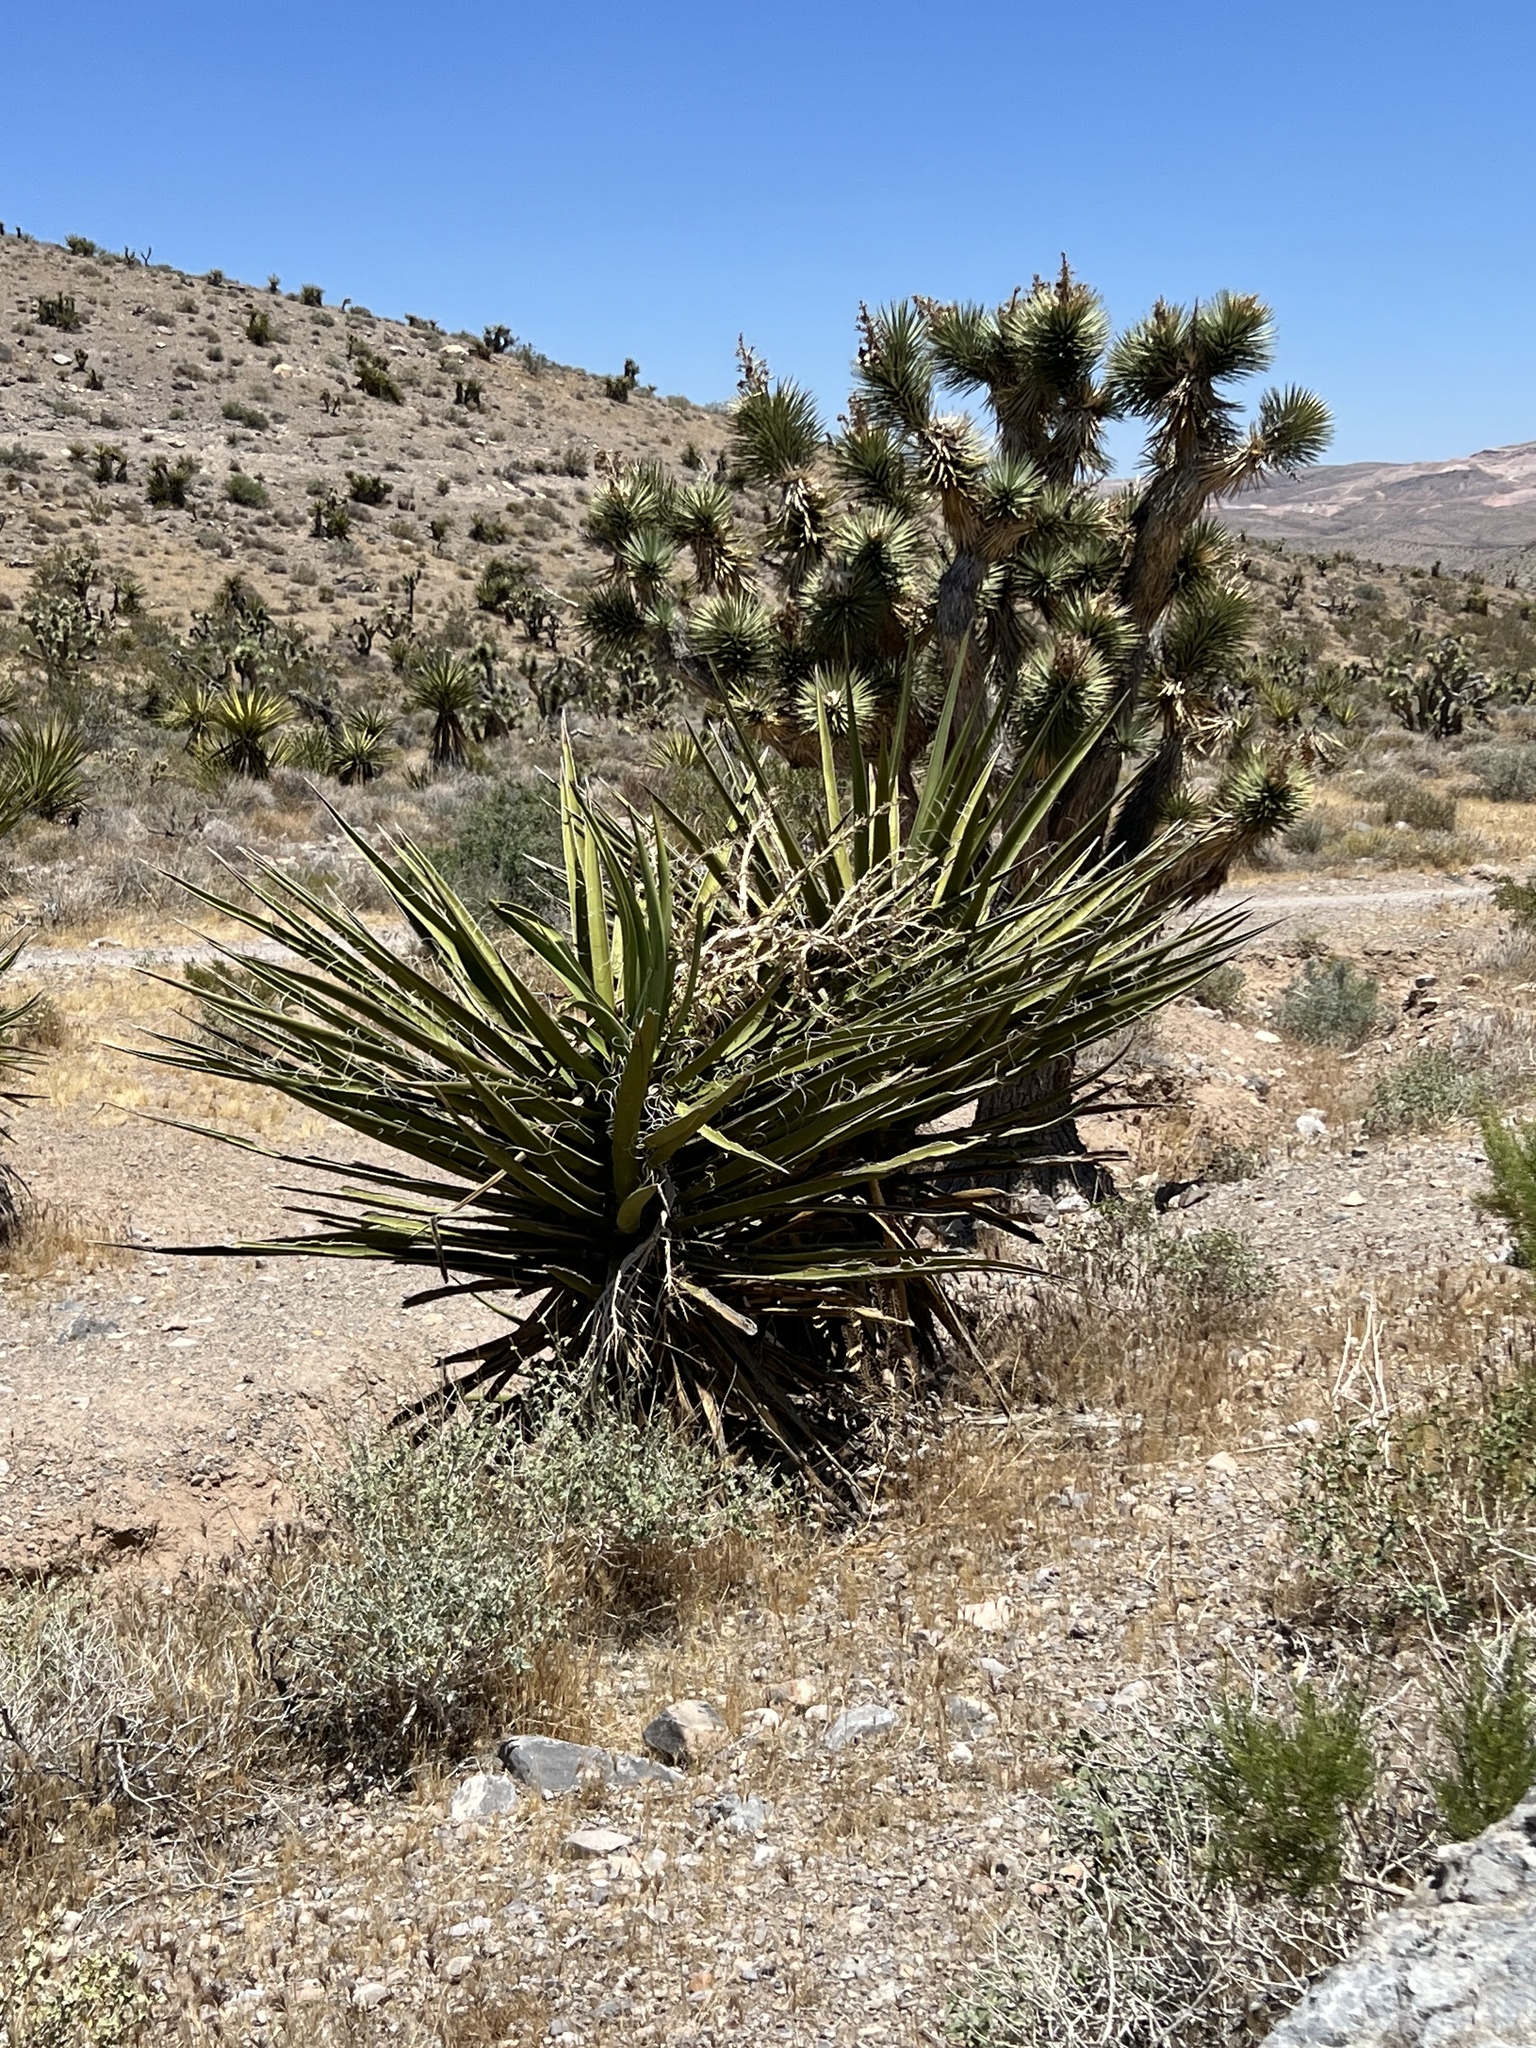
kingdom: Plantae
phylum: Tracheophyta
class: Liliopsida
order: Asparagales
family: Asparagaceae
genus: Yucca
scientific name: Yucca schidigera
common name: Mojave yucca
